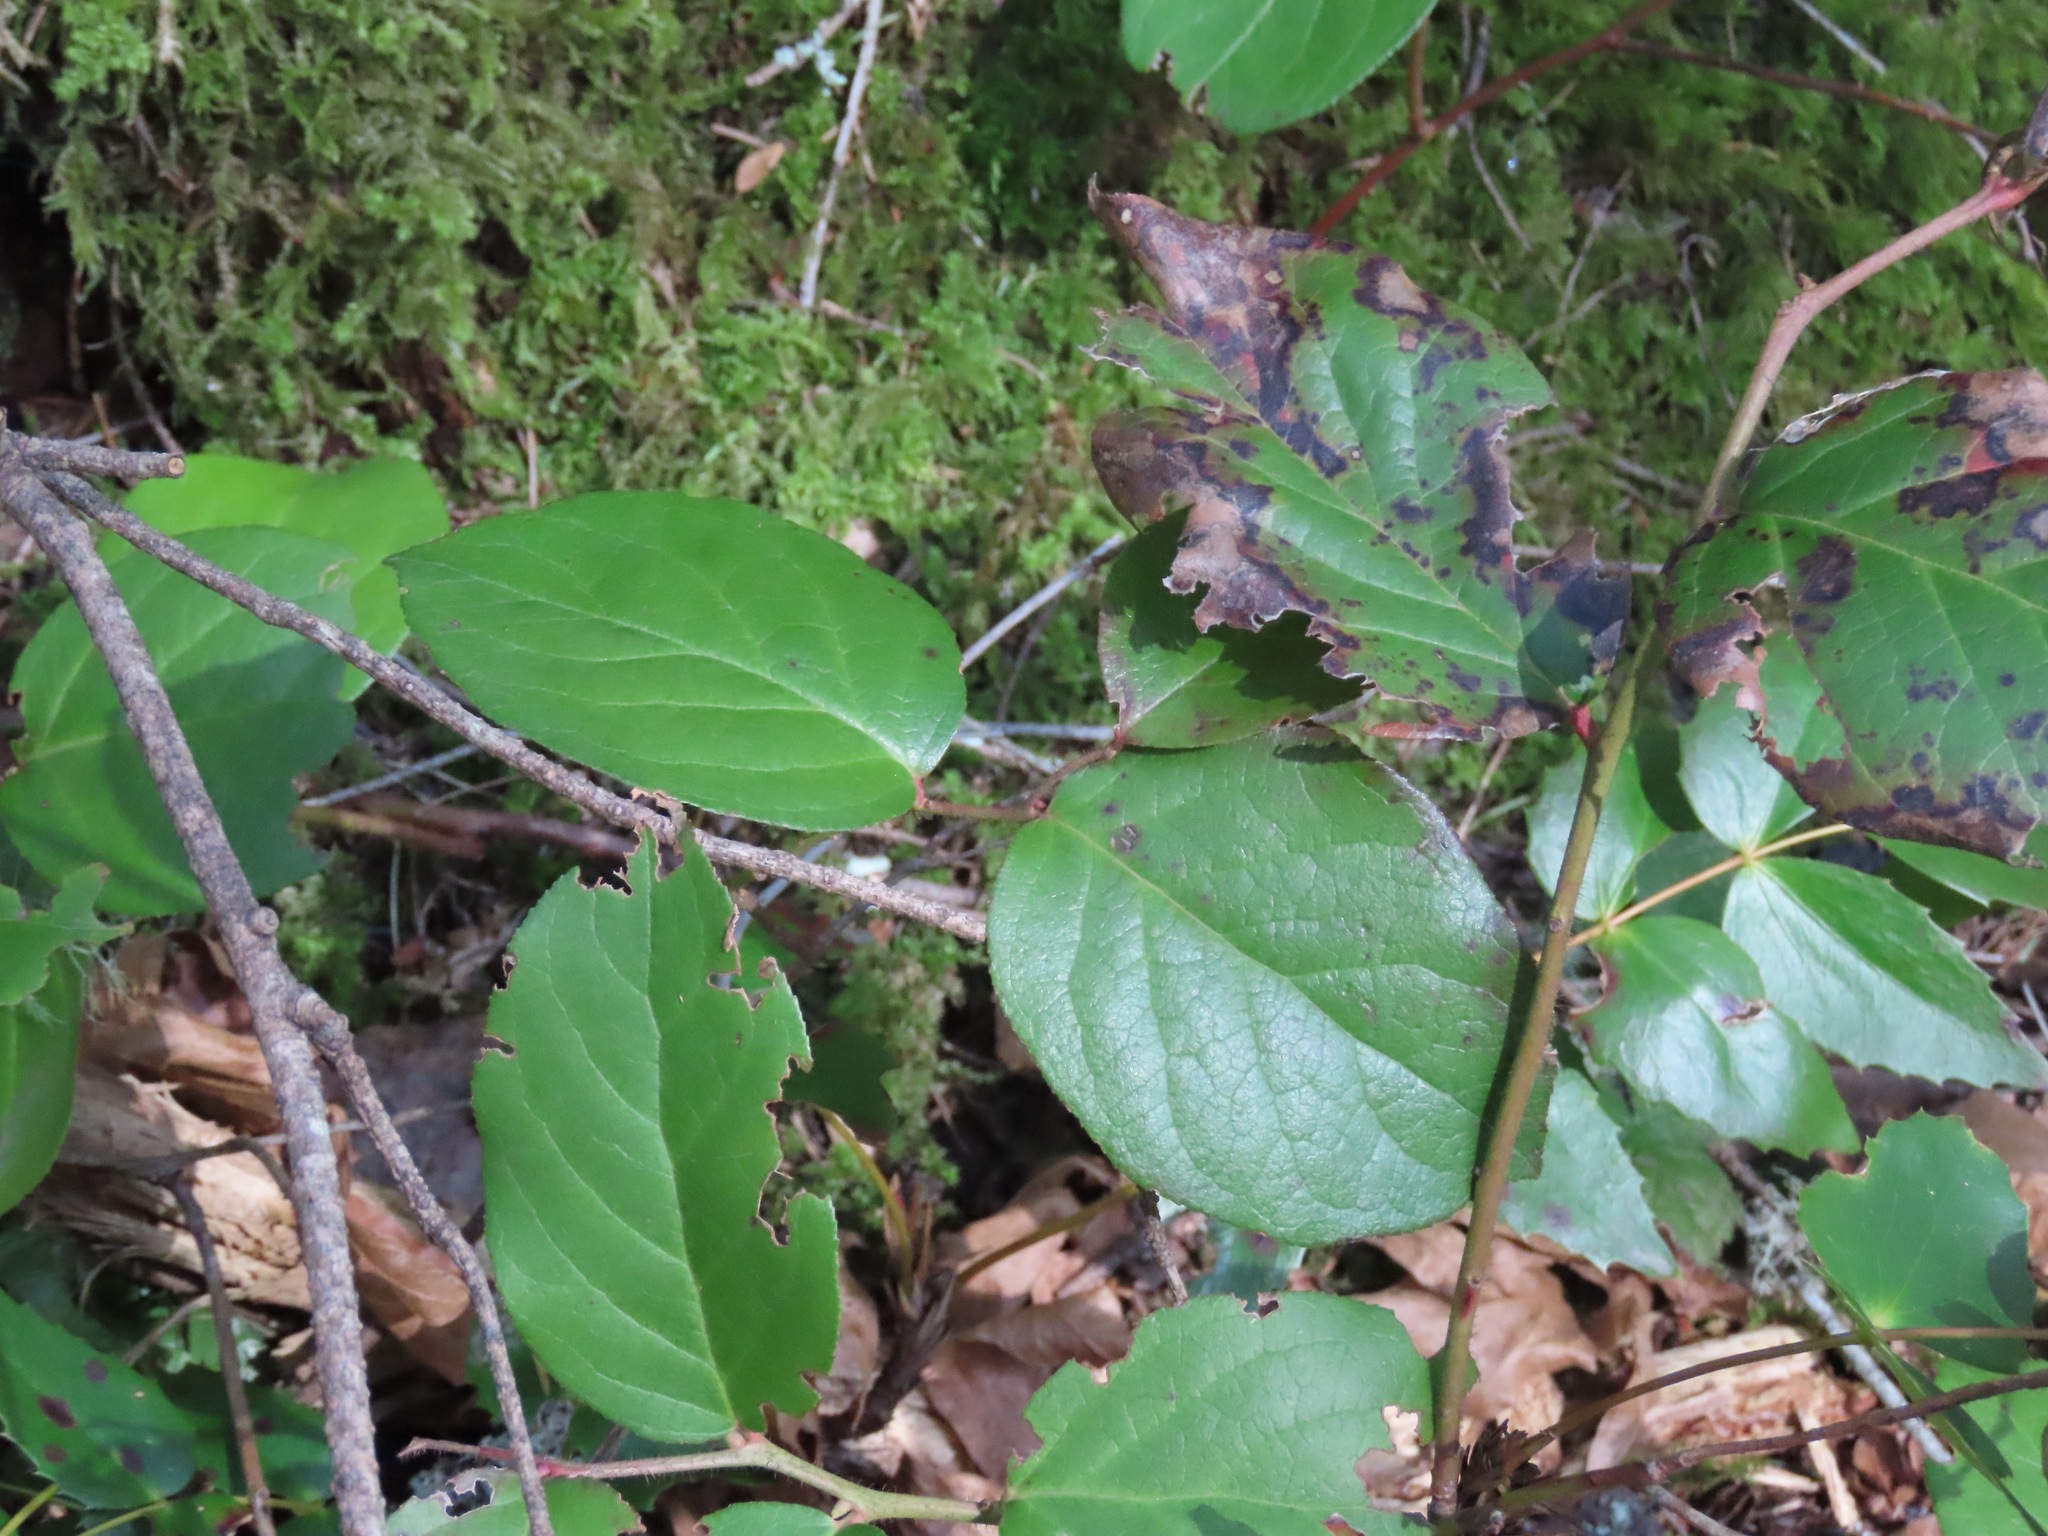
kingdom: Plantae
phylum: Tracheophyta
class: Magnoliopsida
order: Ericales
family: Ericaceae
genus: Gaultheria
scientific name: Gaultheria shallon
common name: Shallon
